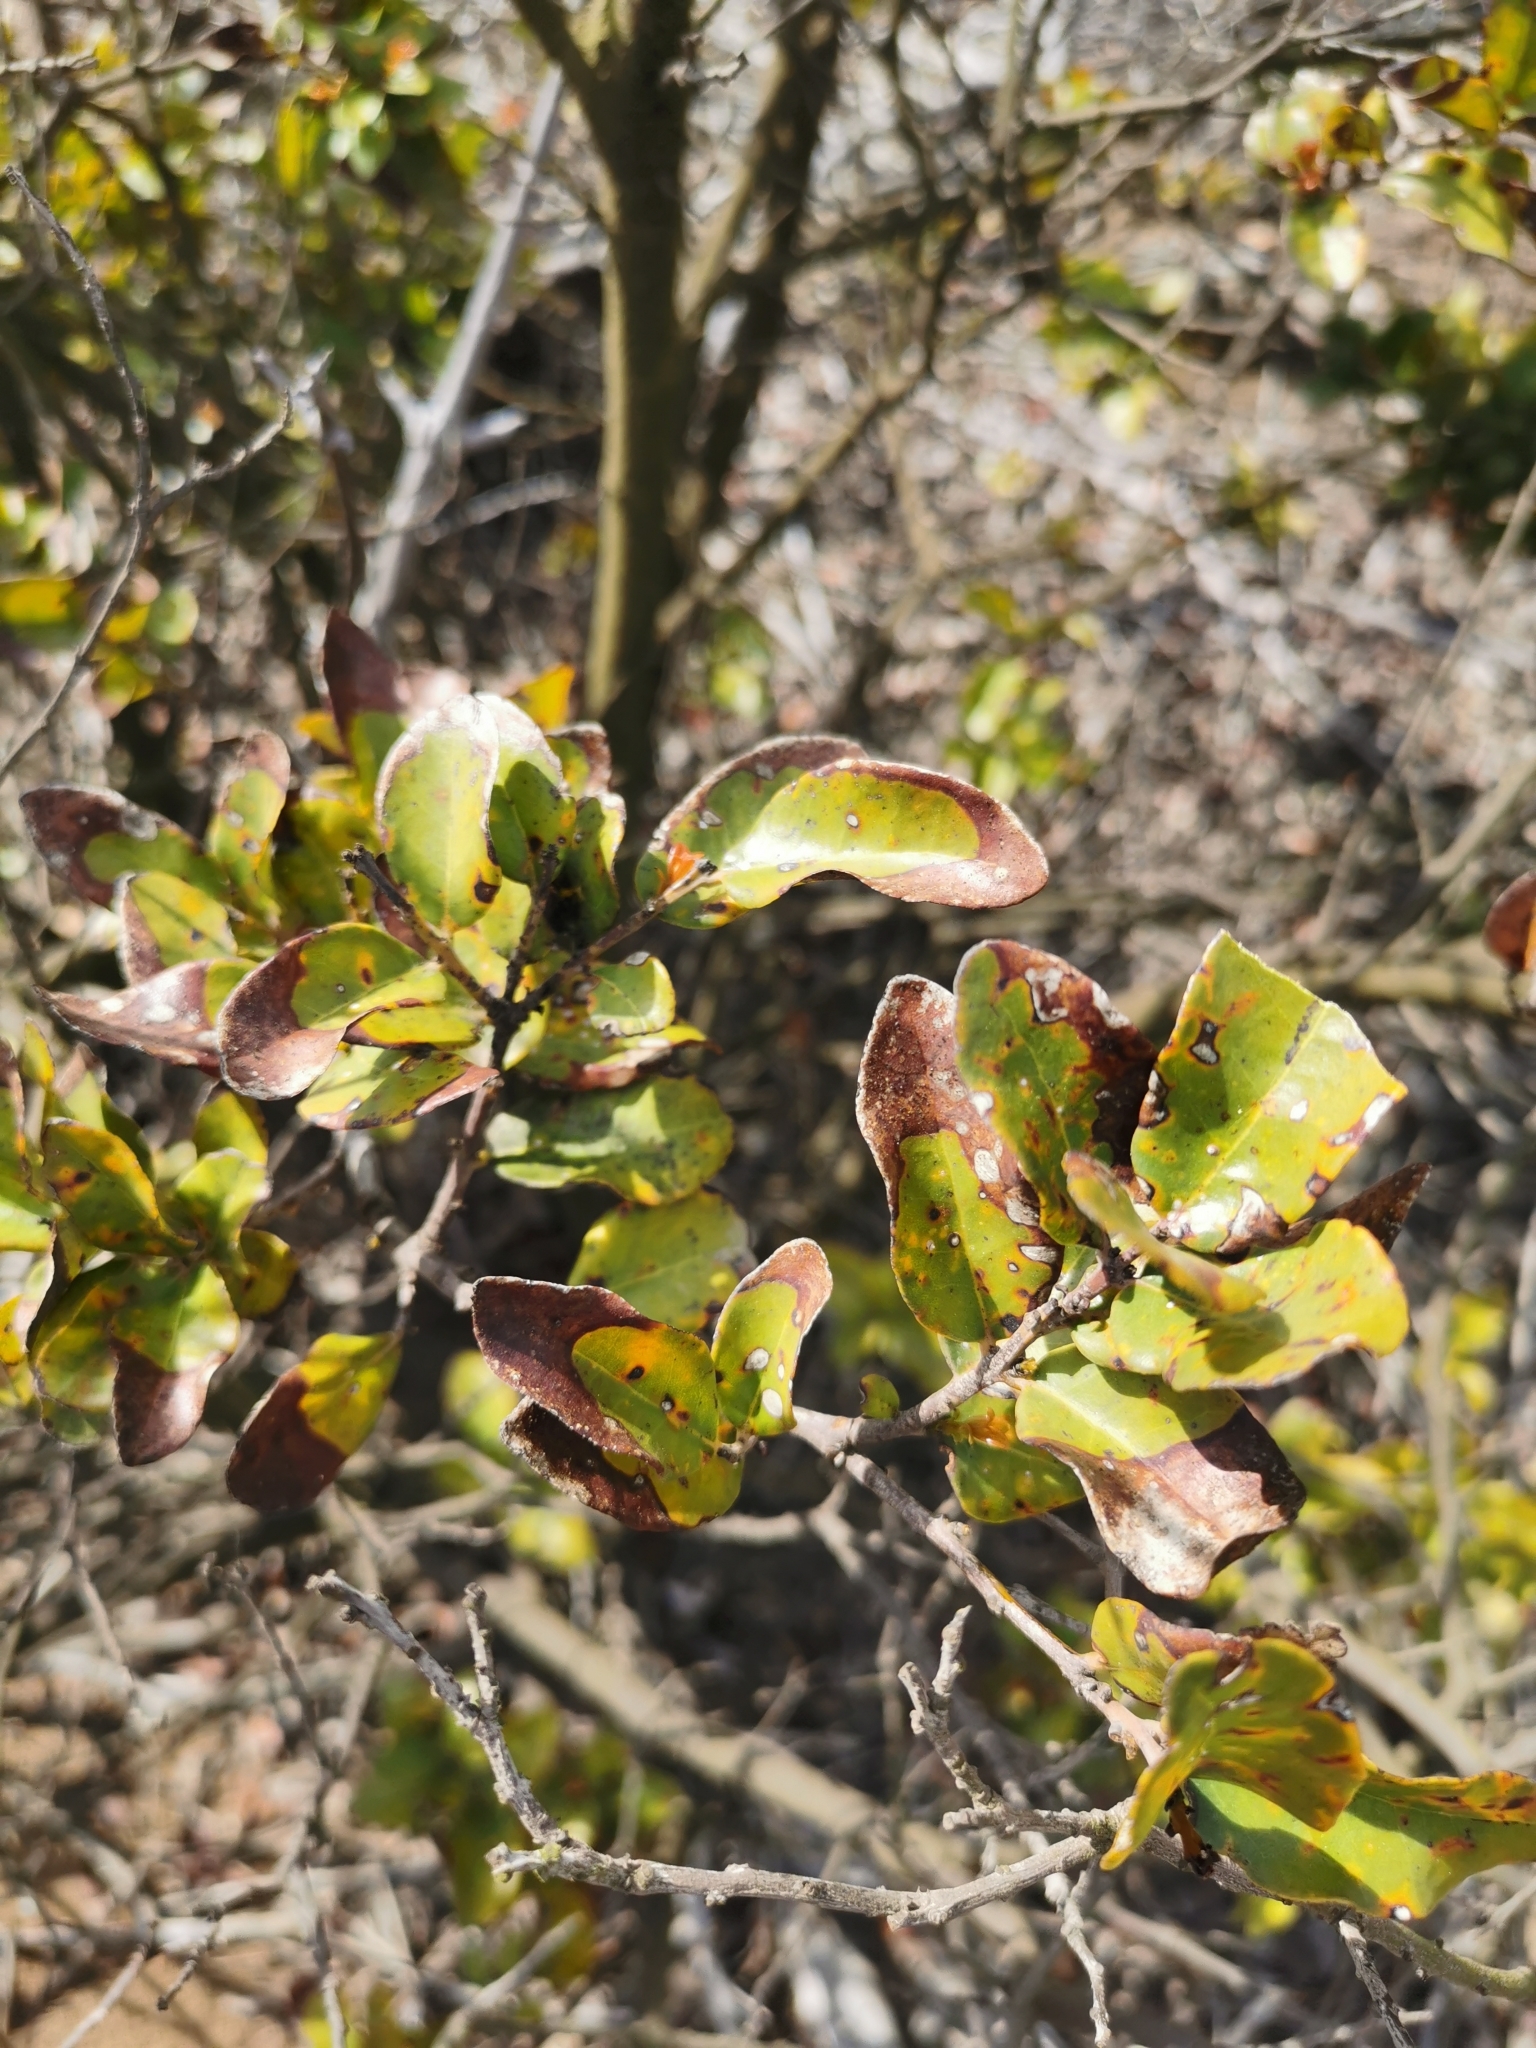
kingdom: Plantae
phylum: Tracheophyta
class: Magnoliopsida
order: Laurales
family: Lauraceae
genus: Cryptocarya
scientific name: Cryptocarya alba
